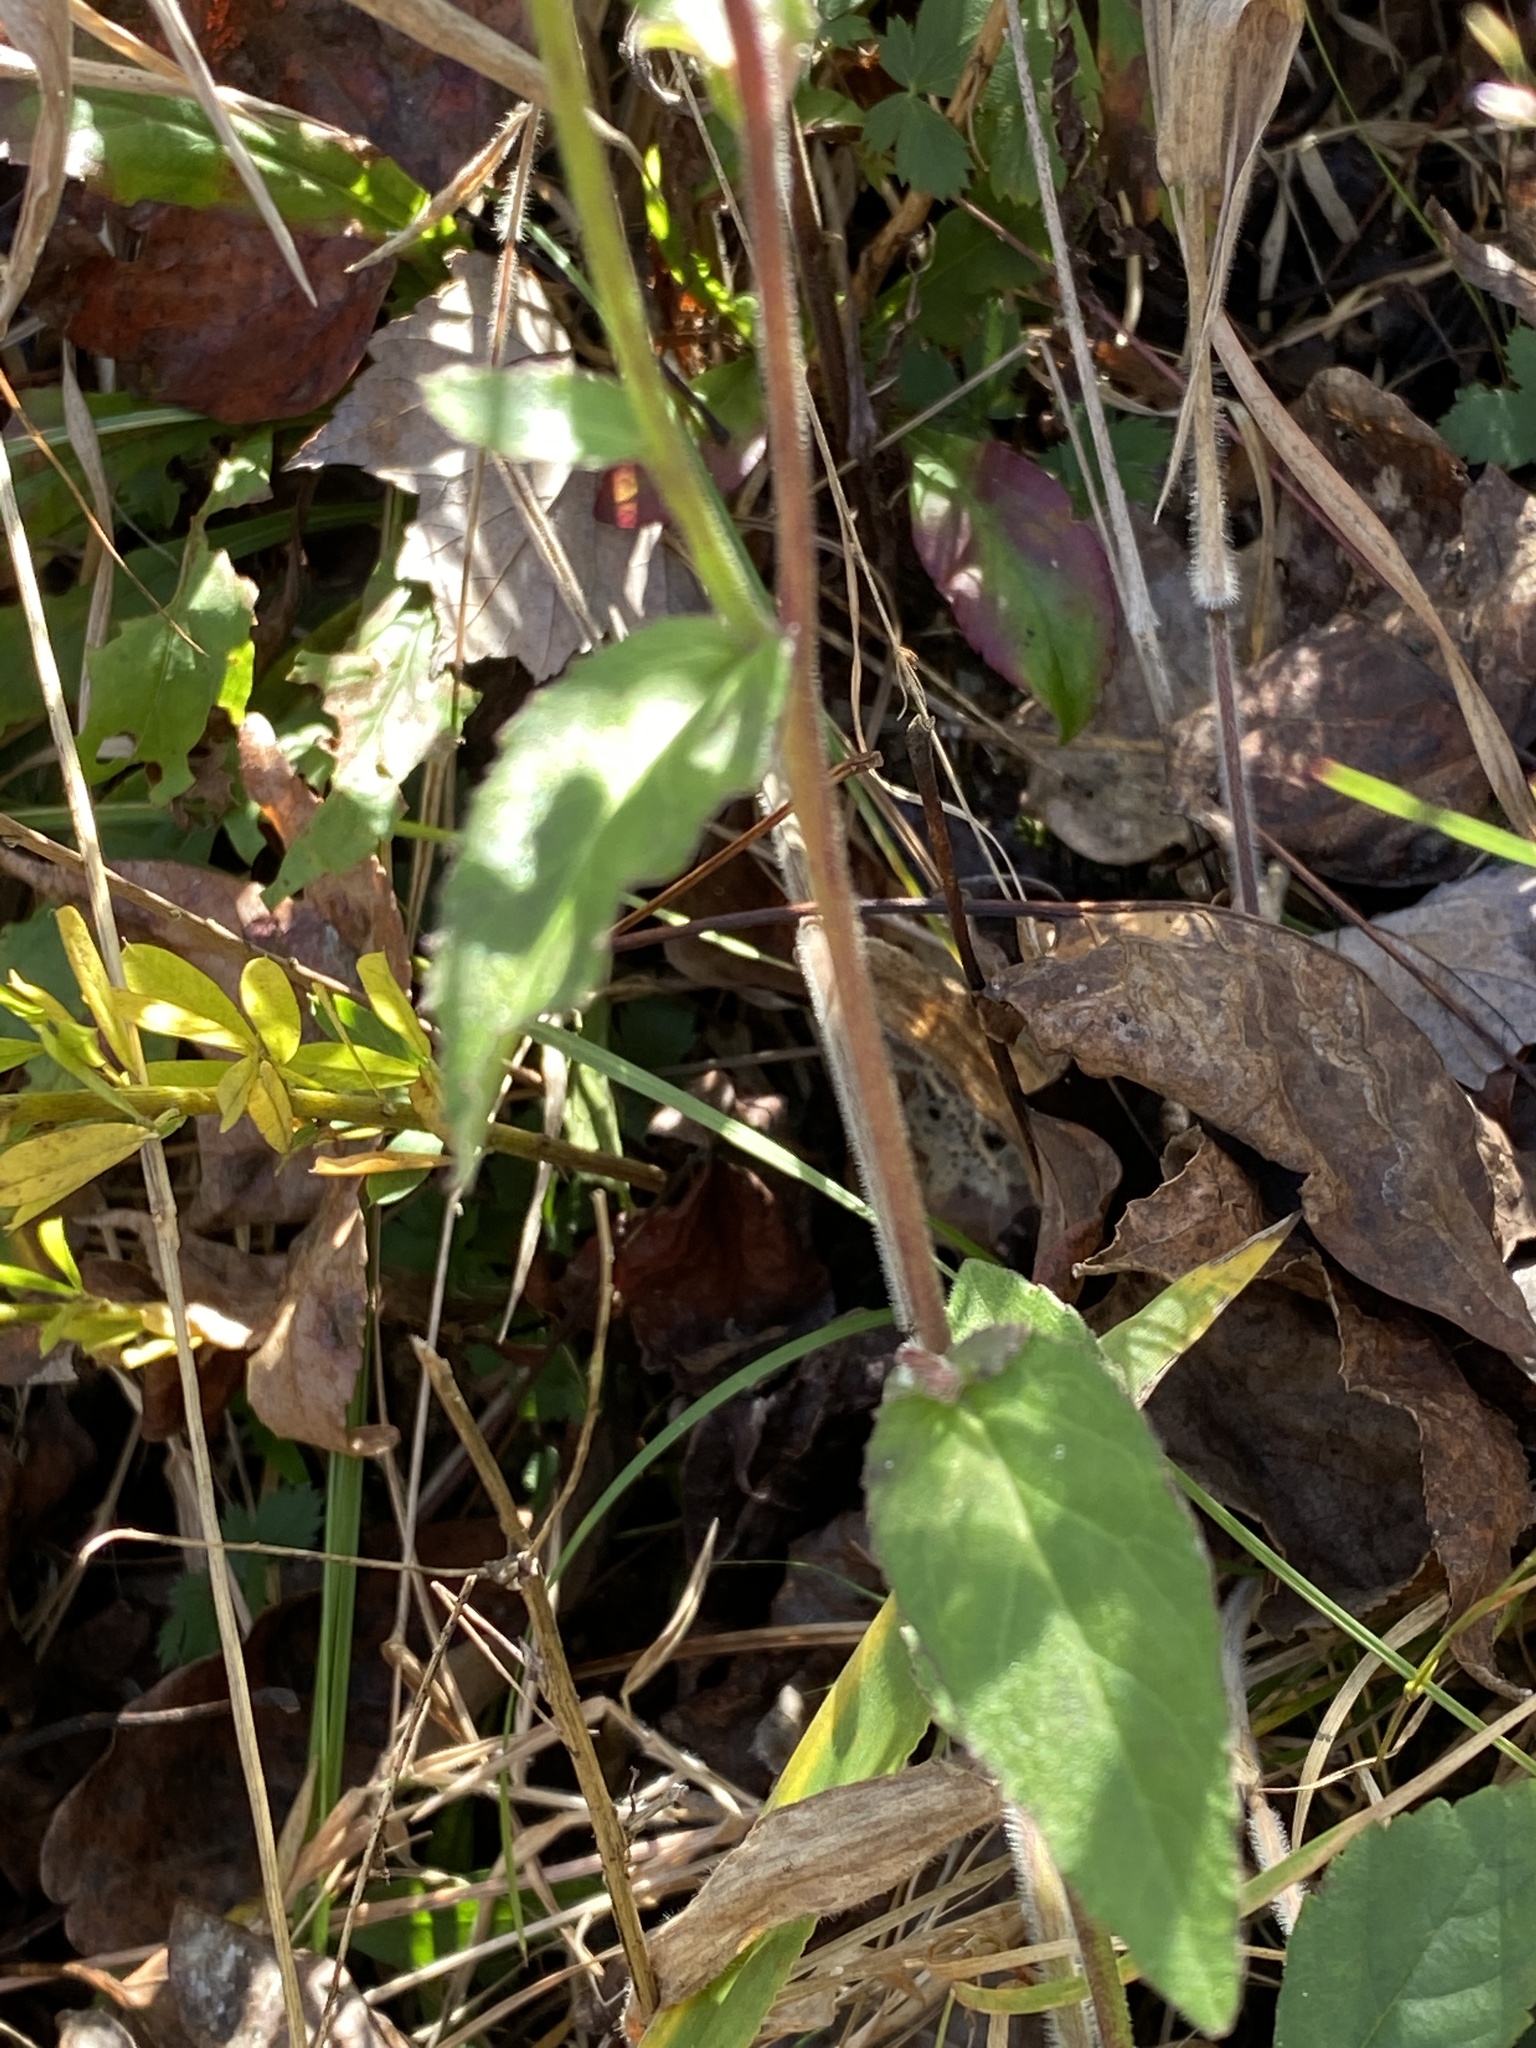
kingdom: Plantae
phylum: Tracheophyta
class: Magnoliopsida
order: Asterales
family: Campanulaceae
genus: Lobelia
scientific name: Lobelia puberula
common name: Purple dewdrop
